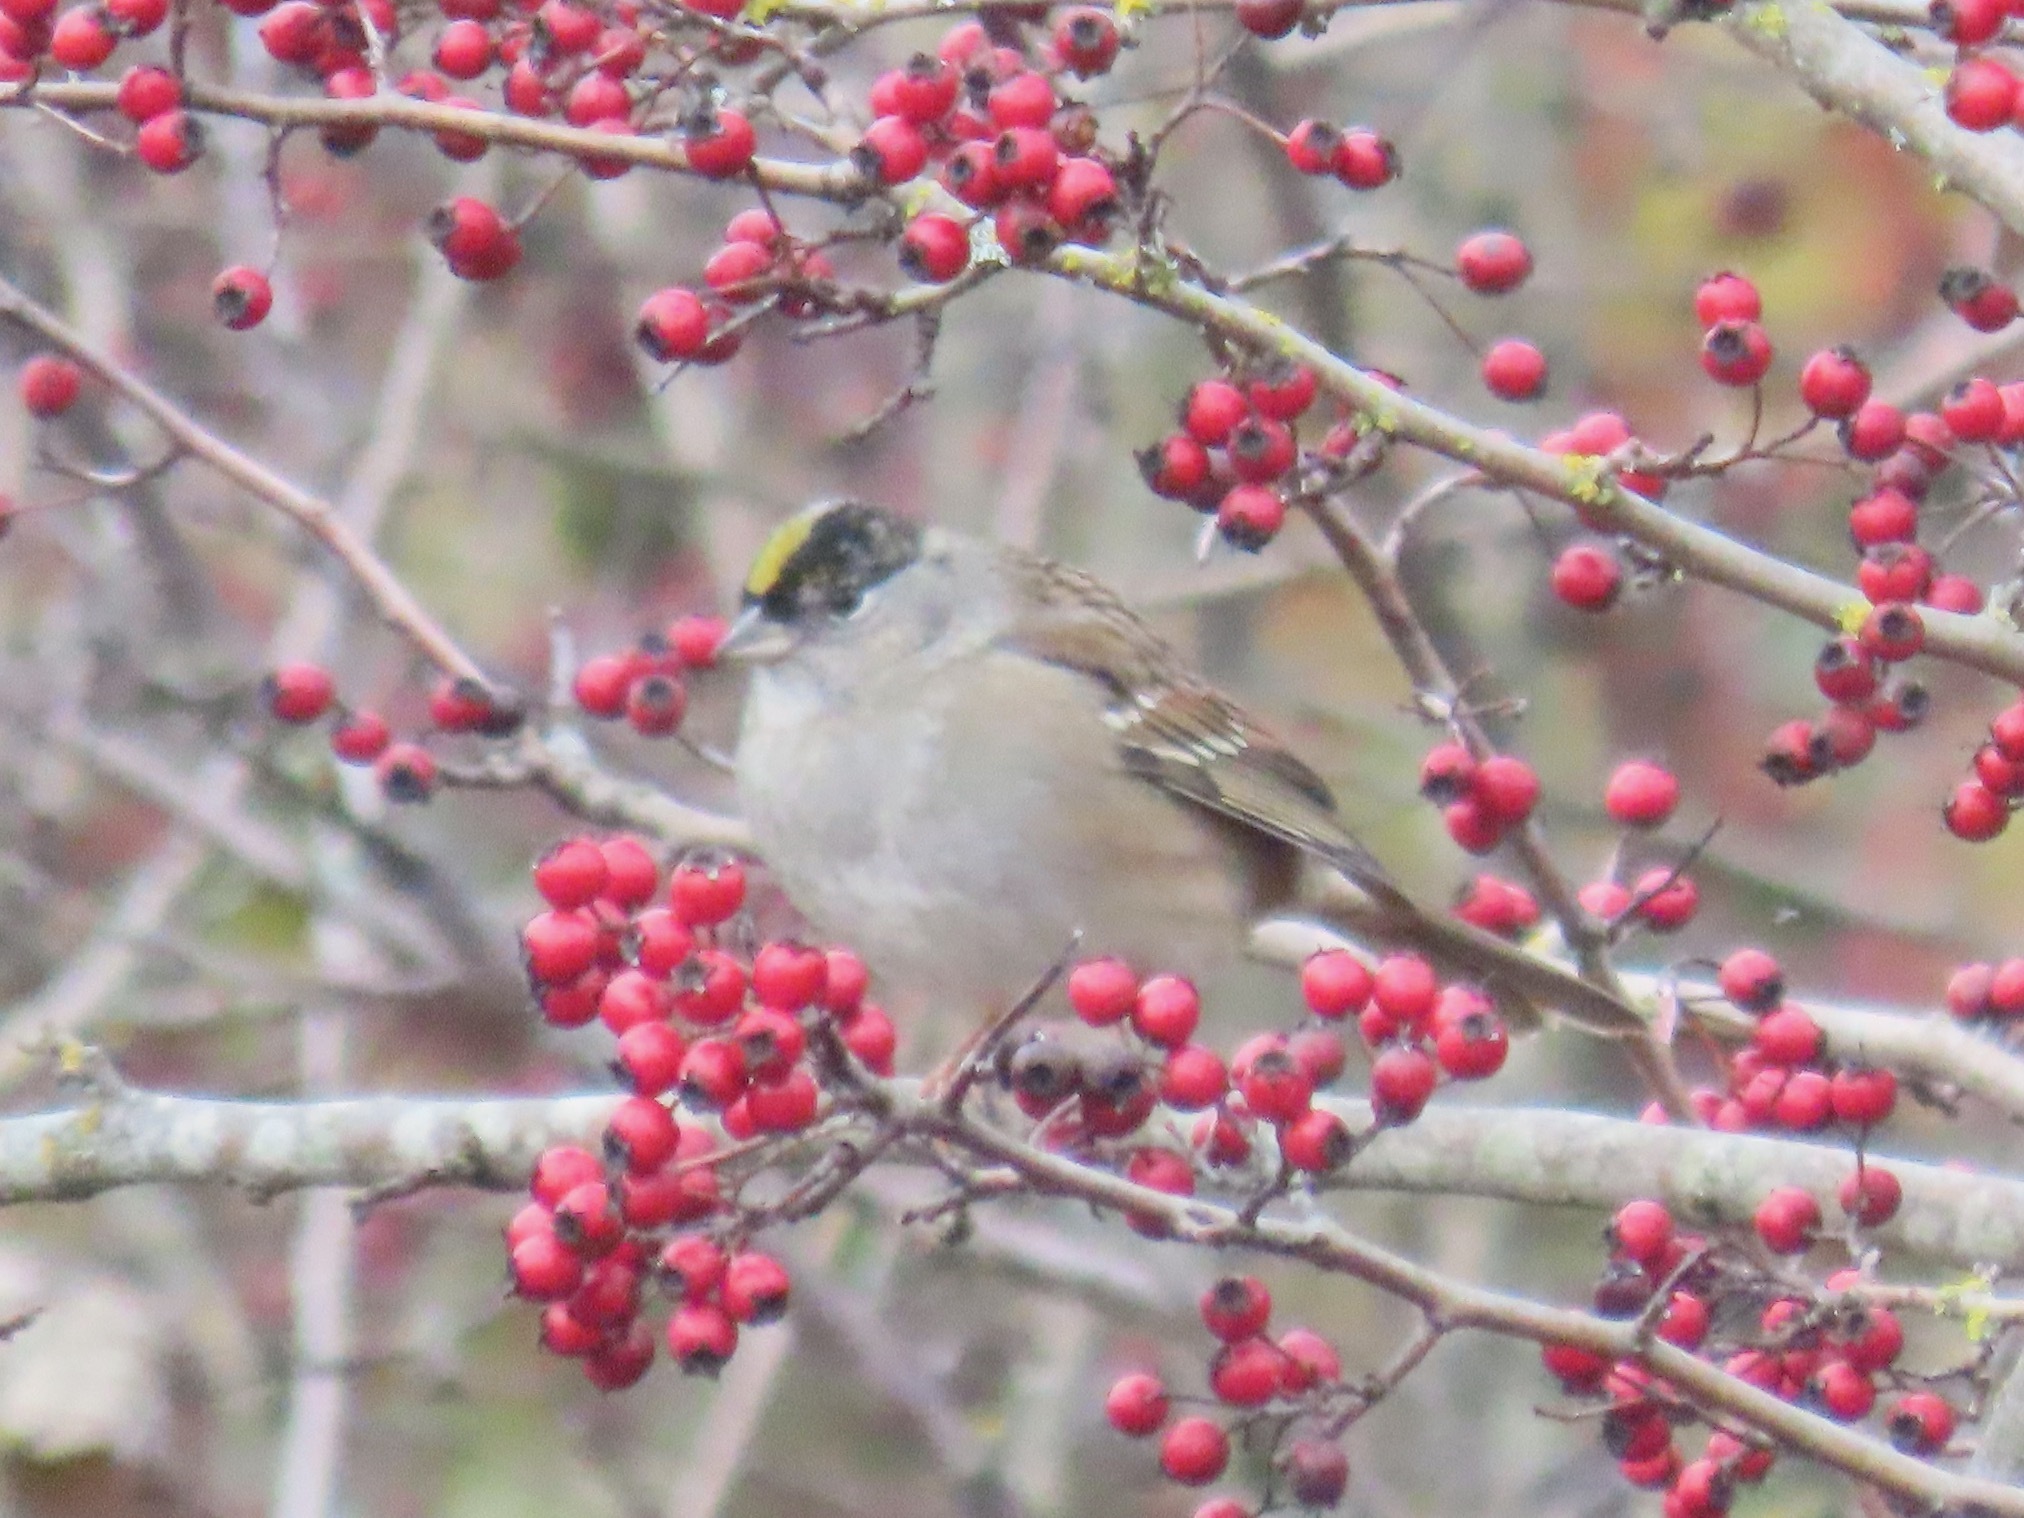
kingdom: Animalia
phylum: Chordata
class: Aves
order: Passeriformes
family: Passerellidae
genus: Zonotrichia
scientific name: Zonotrichia atricapilla
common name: Golden-crowned sparrow
